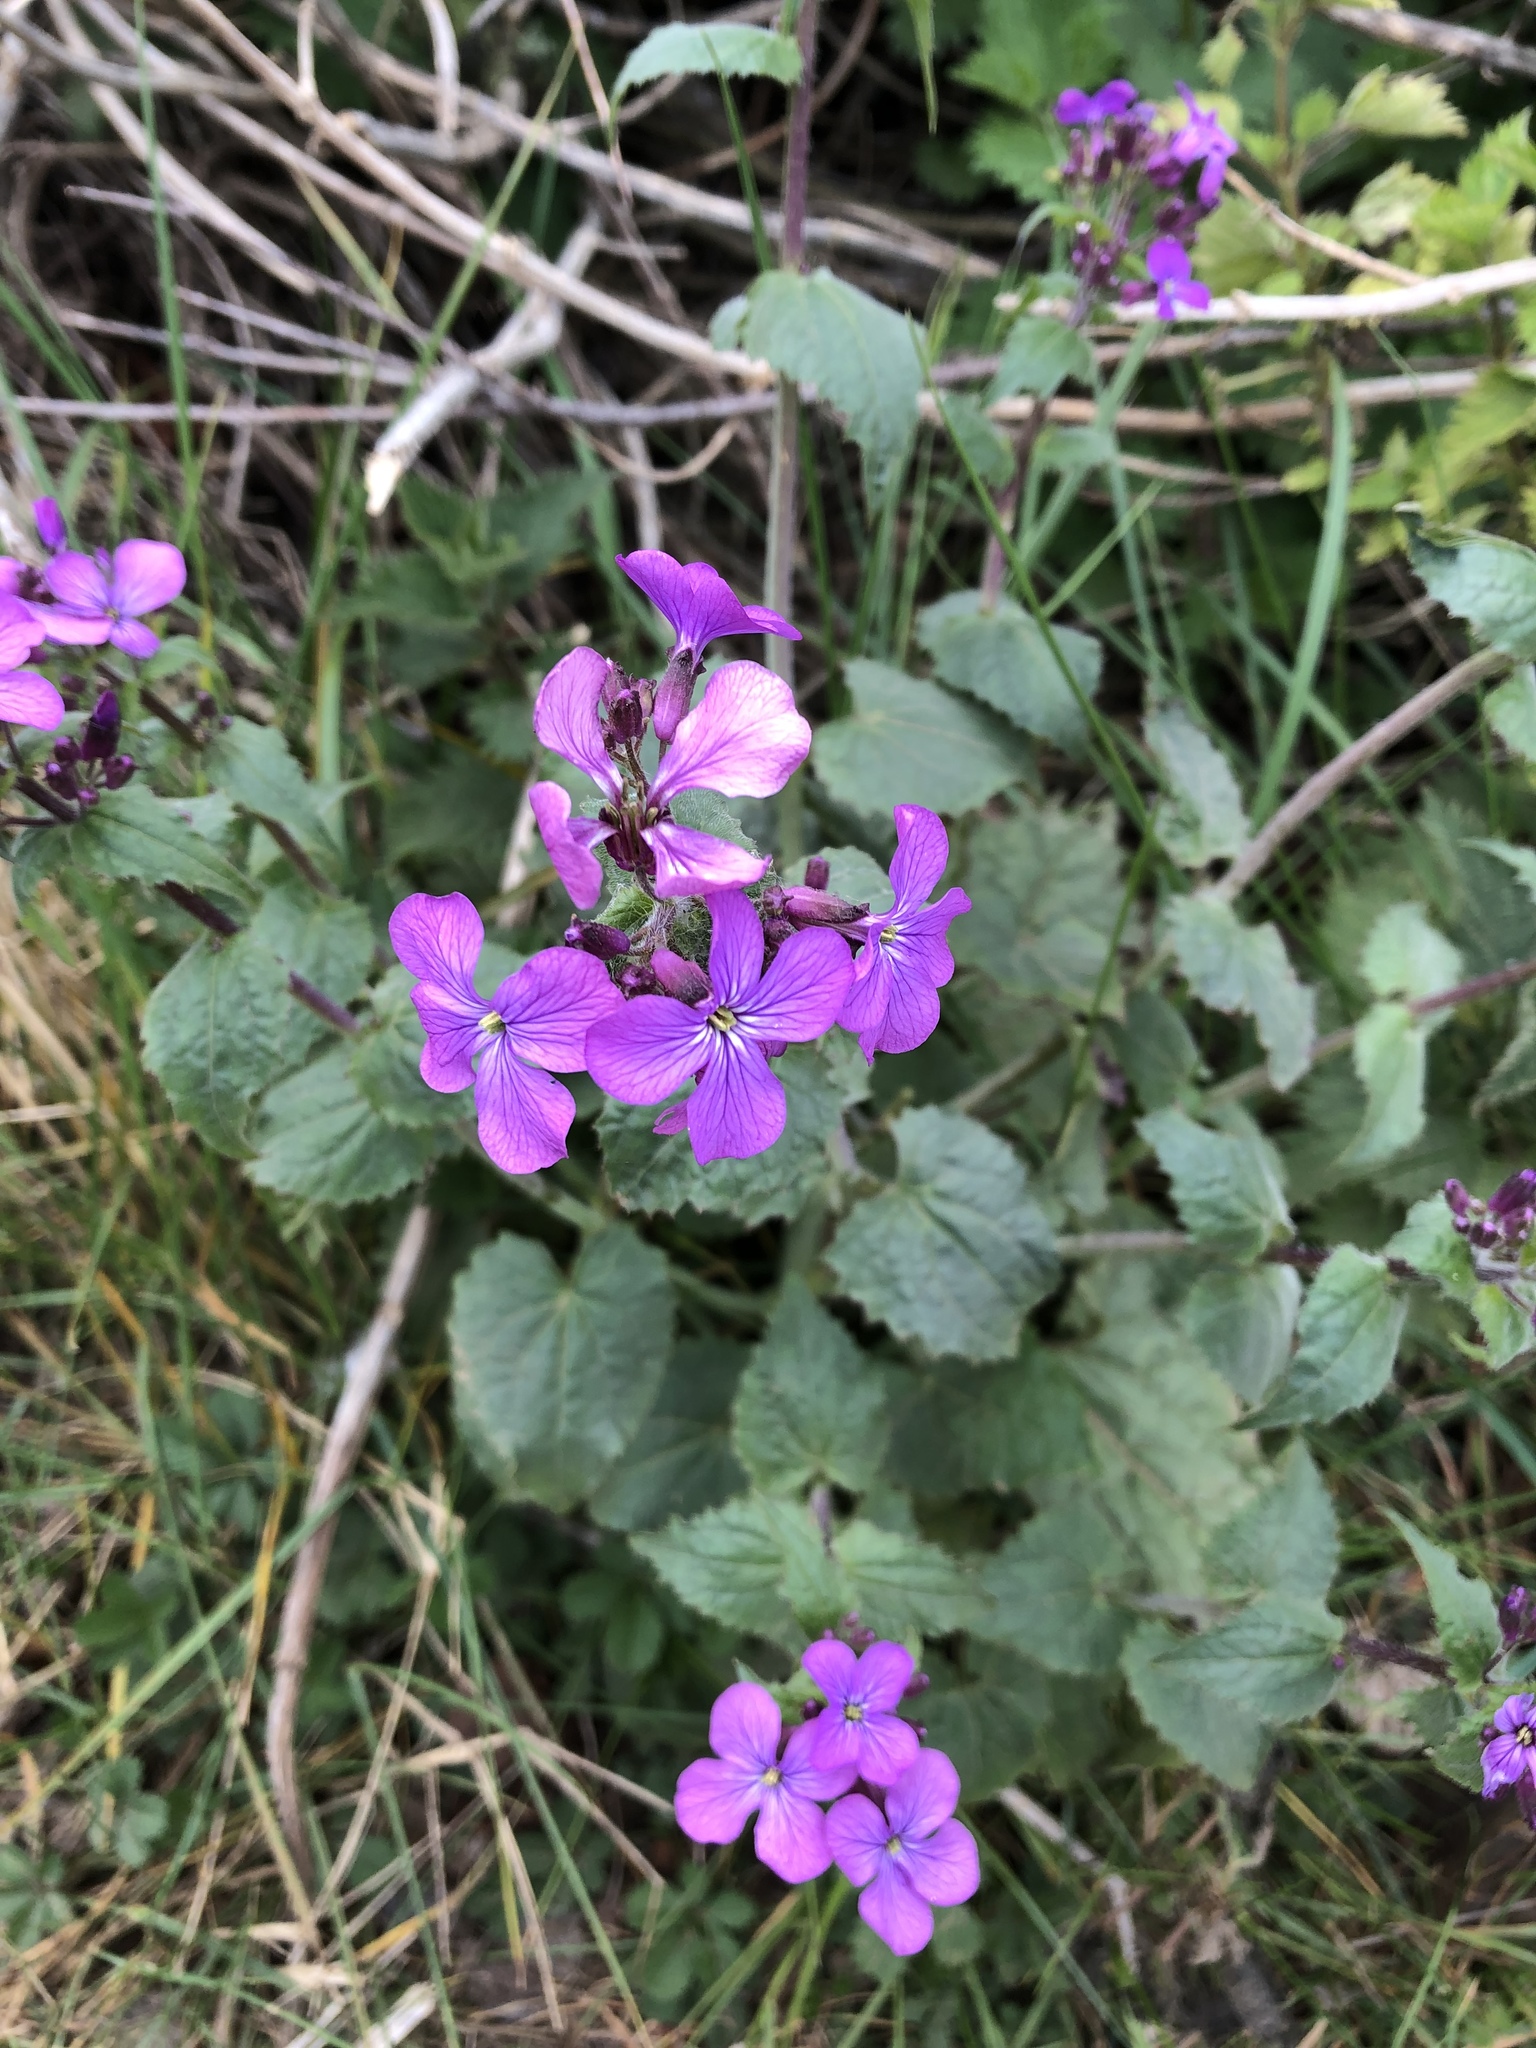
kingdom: Plantae
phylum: Tracheophyta
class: Magnoliopsida
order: Brassicales
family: Brassicaceae
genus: Lunaria
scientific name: Lunaria annua
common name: Honesty
